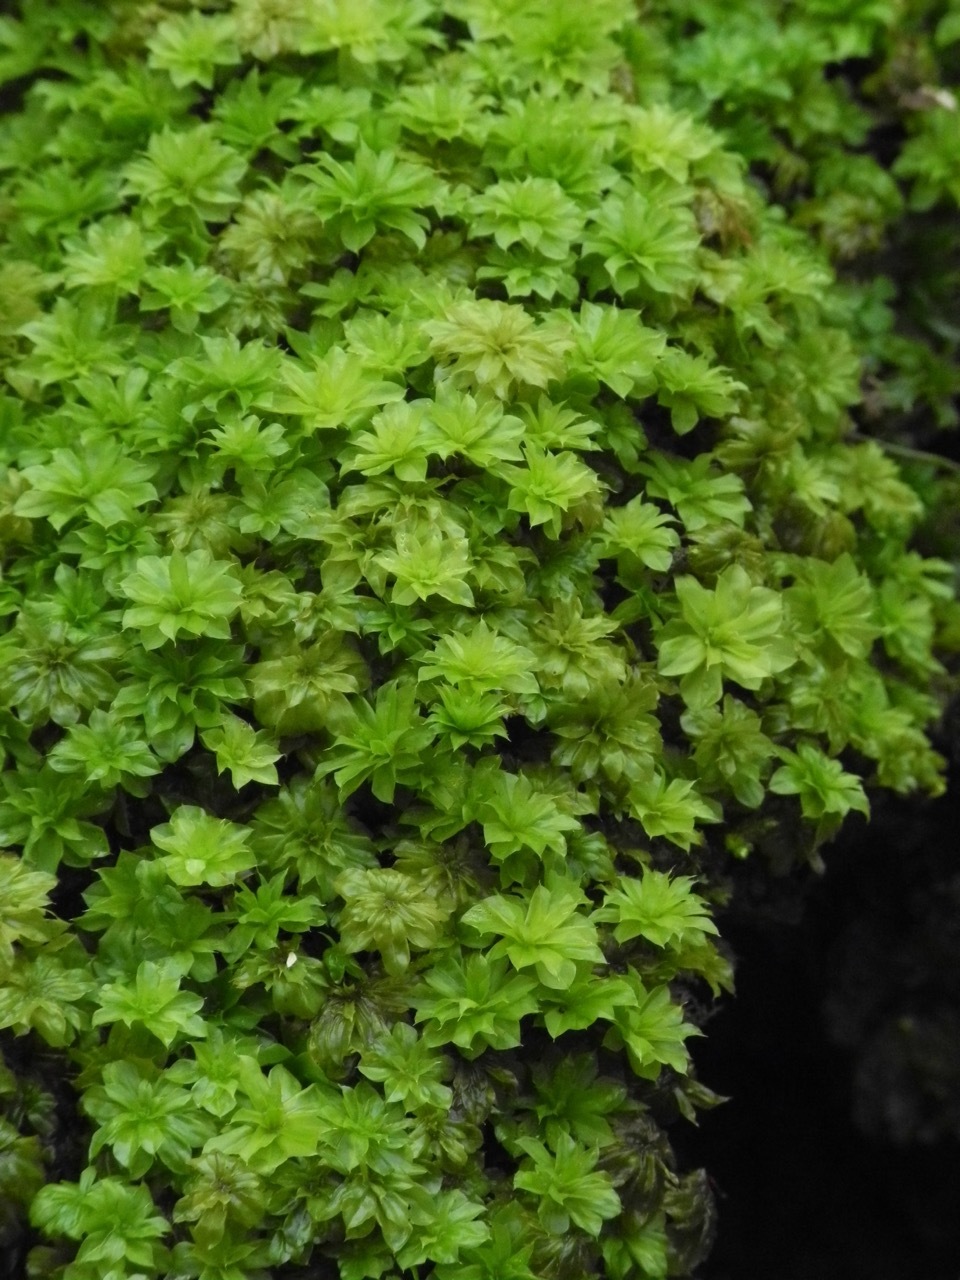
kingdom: Plantae
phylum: Bryophyta
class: Bryopsida
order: Bryales
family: Bryaceae
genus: Rhodobryum
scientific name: Rhodobryum ontariense
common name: Ontario rhodobryum moss
